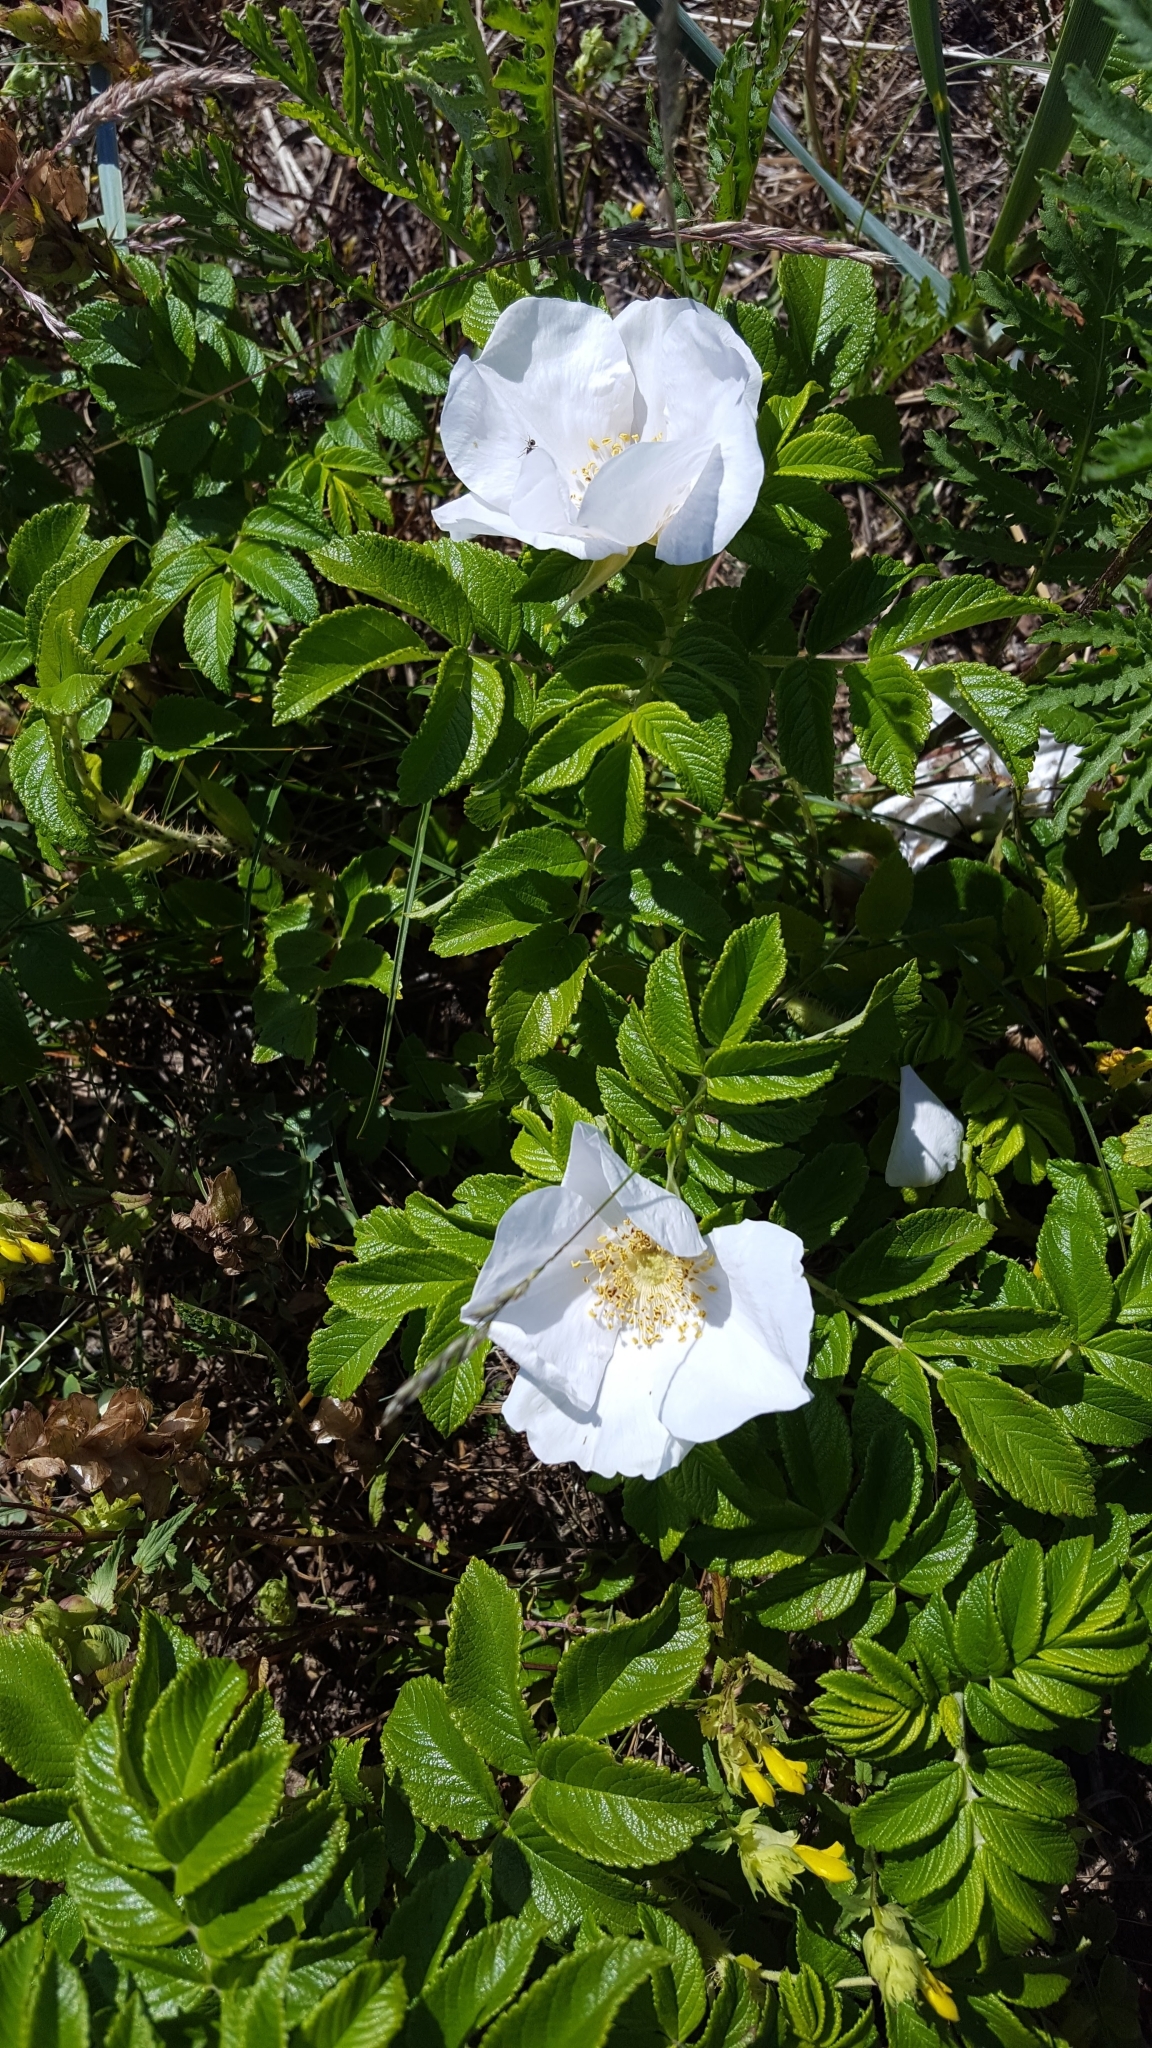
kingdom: Plantae
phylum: Tracheophyta
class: Magnoliopsida
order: Rosales
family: Rosaceae
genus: Rosa
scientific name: Rosa rugosa
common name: Japanese rose
